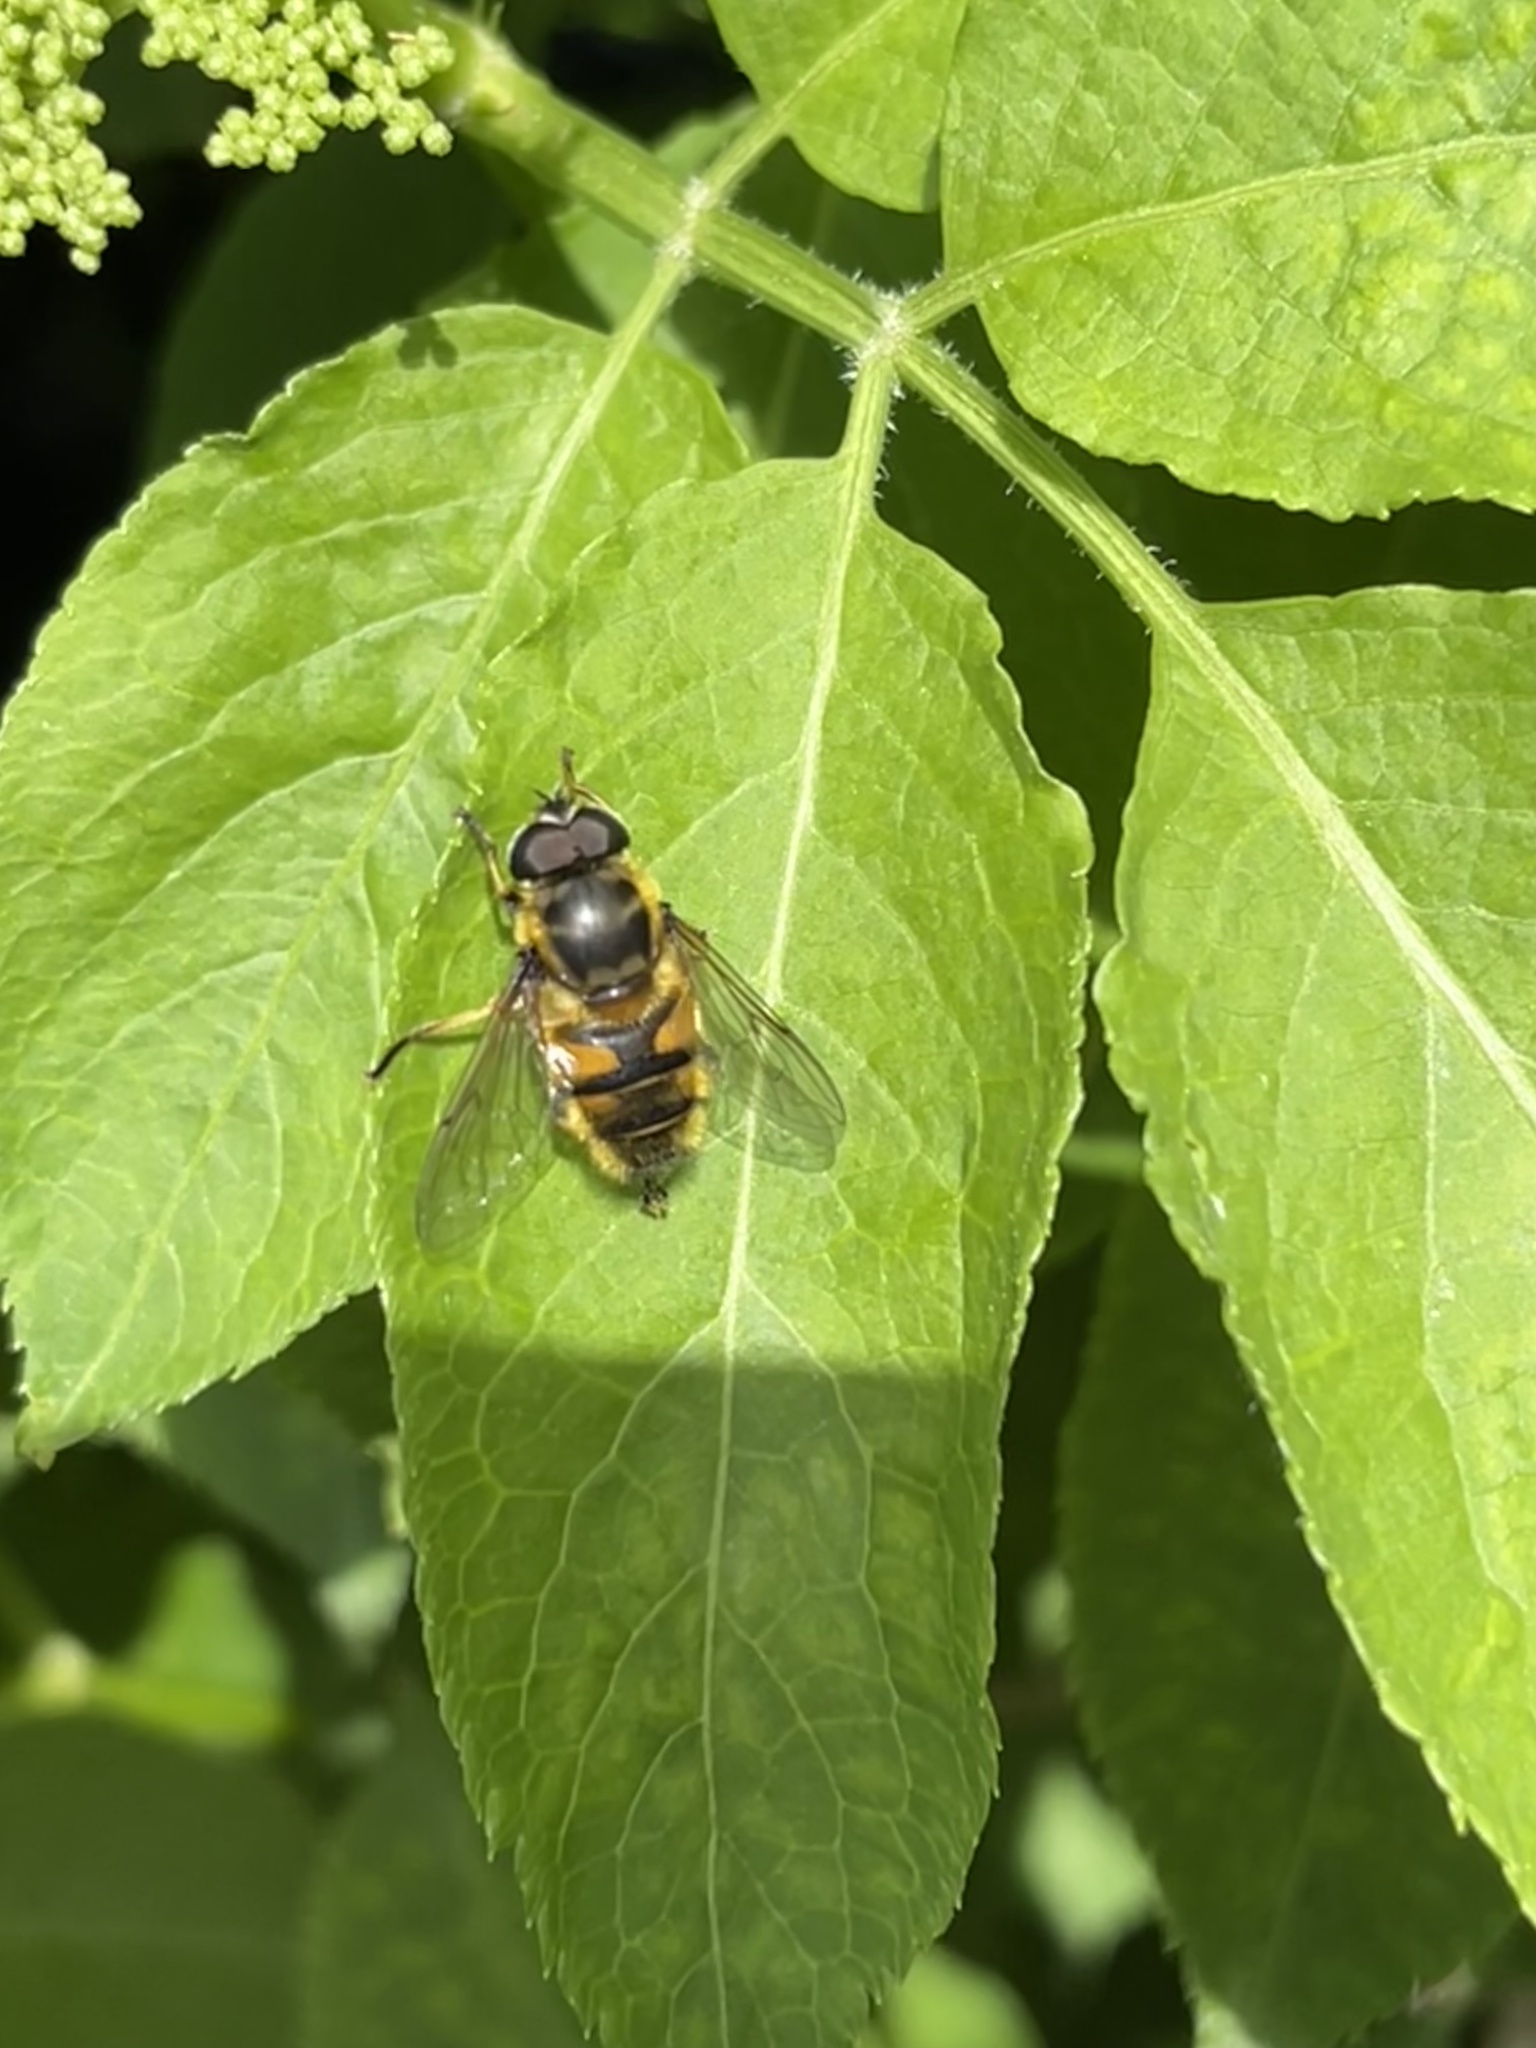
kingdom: Animalia
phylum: Arthropoda
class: Insecta
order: Diptera
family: Syrphidae
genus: Myathropa
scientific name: Myathropa florea
